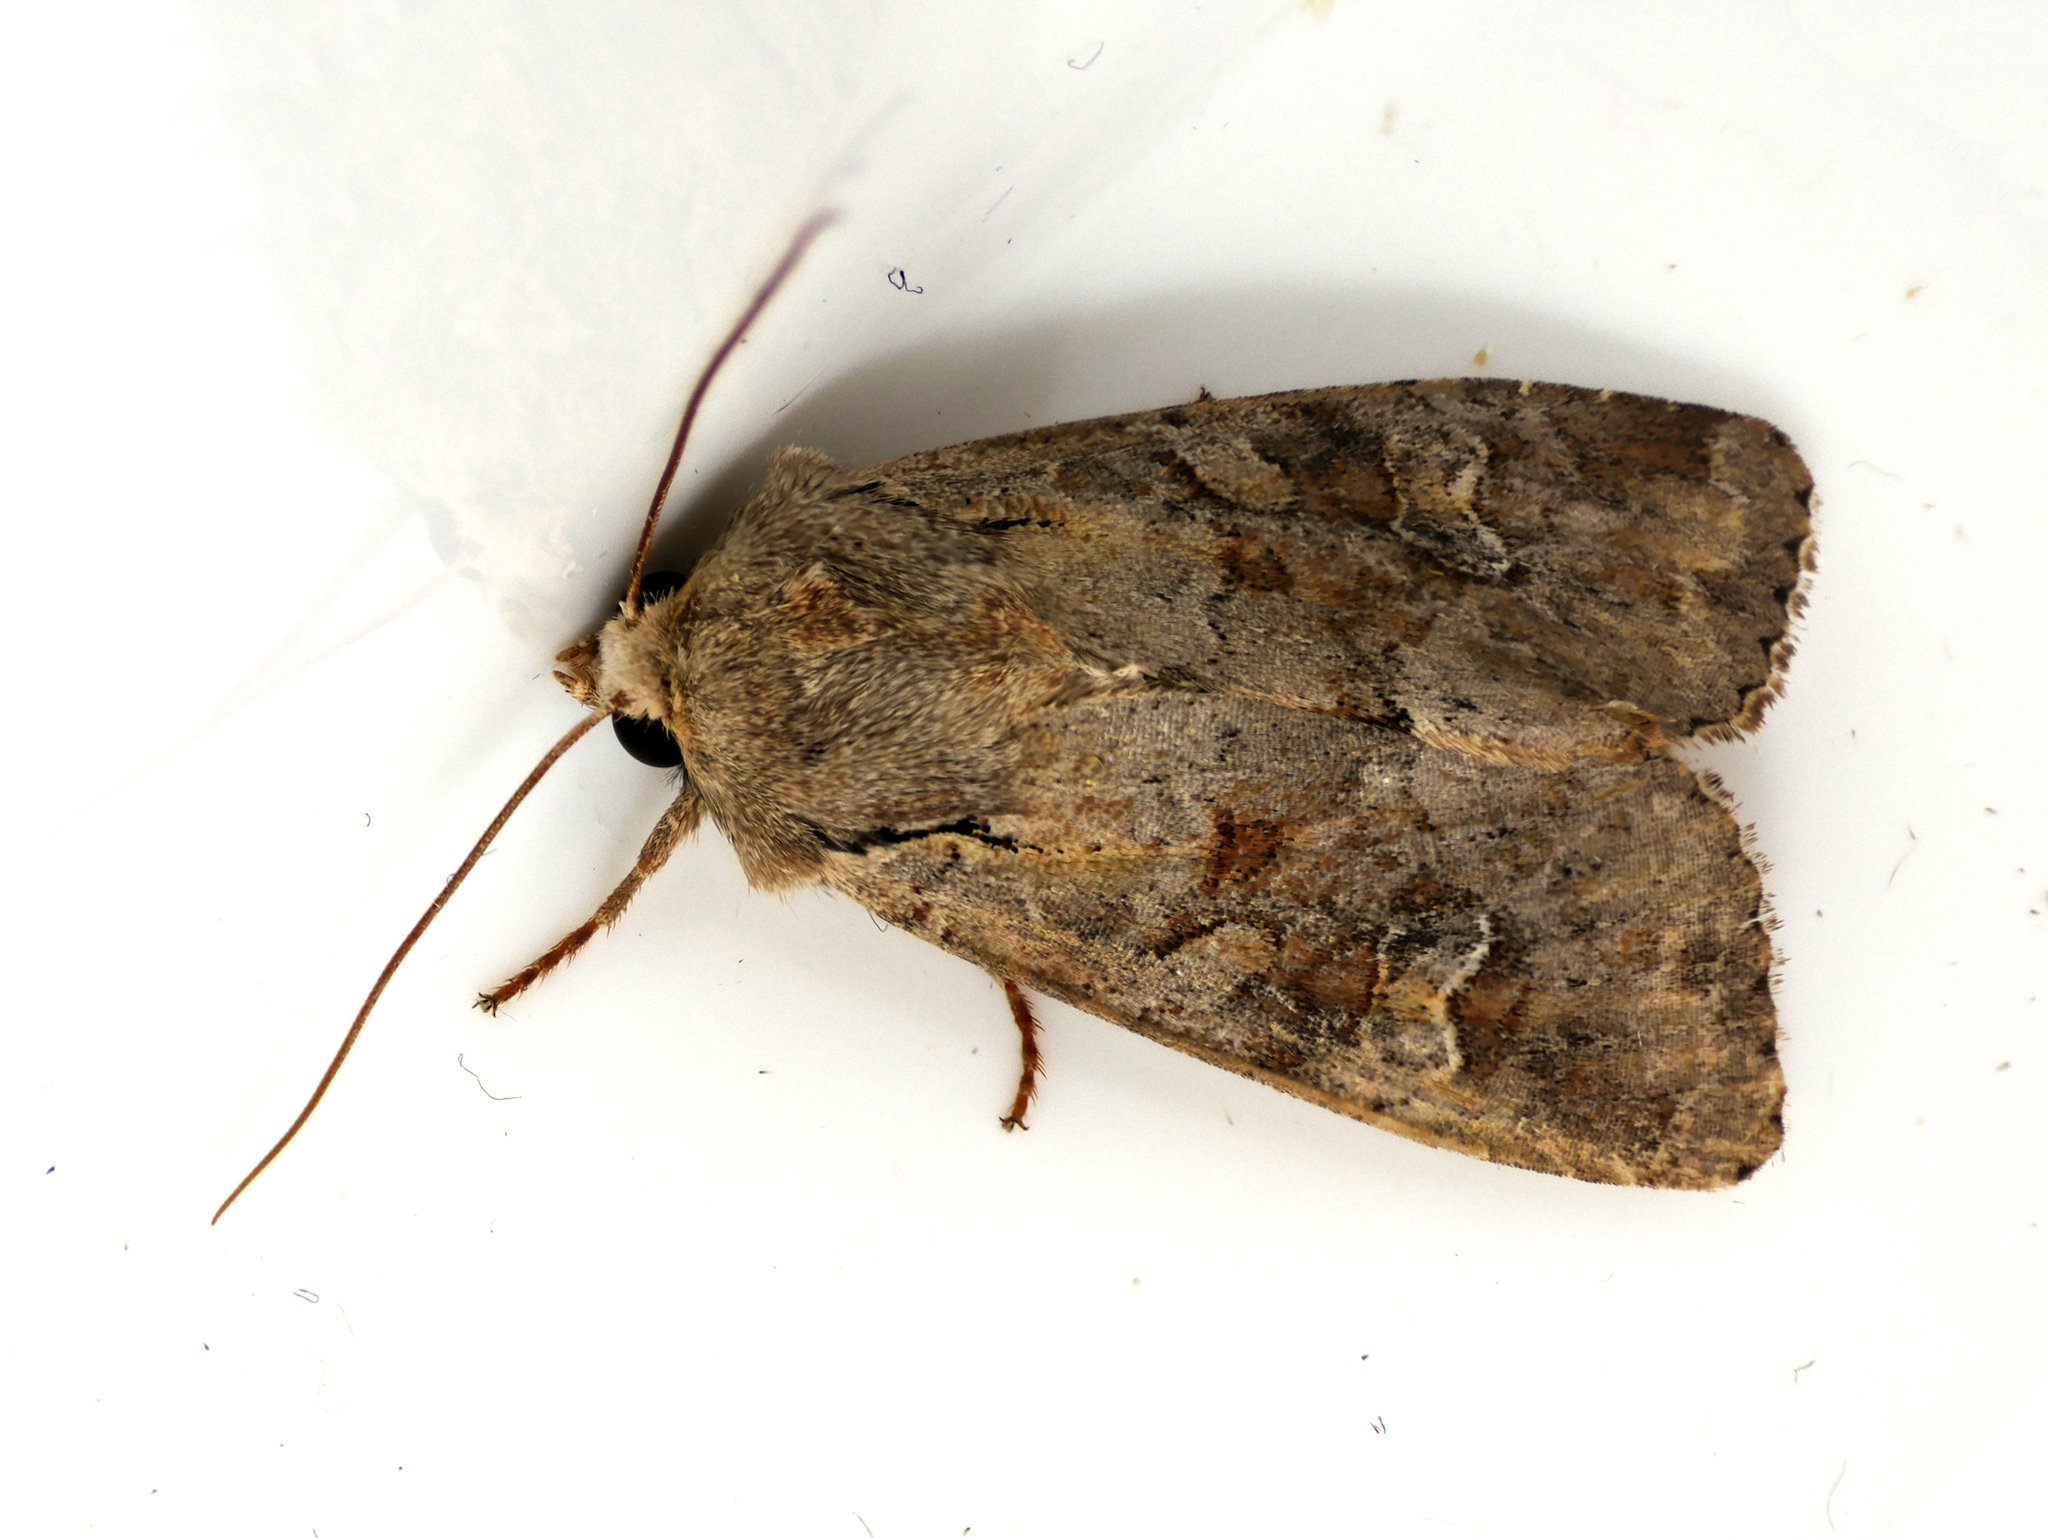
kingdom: Animalia
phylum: Arthropoda
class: Insecta
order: Lepidoptera
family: Noctuidae
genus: Apamea
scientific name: Apamea sordens
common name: Rustic shoulder-knot
